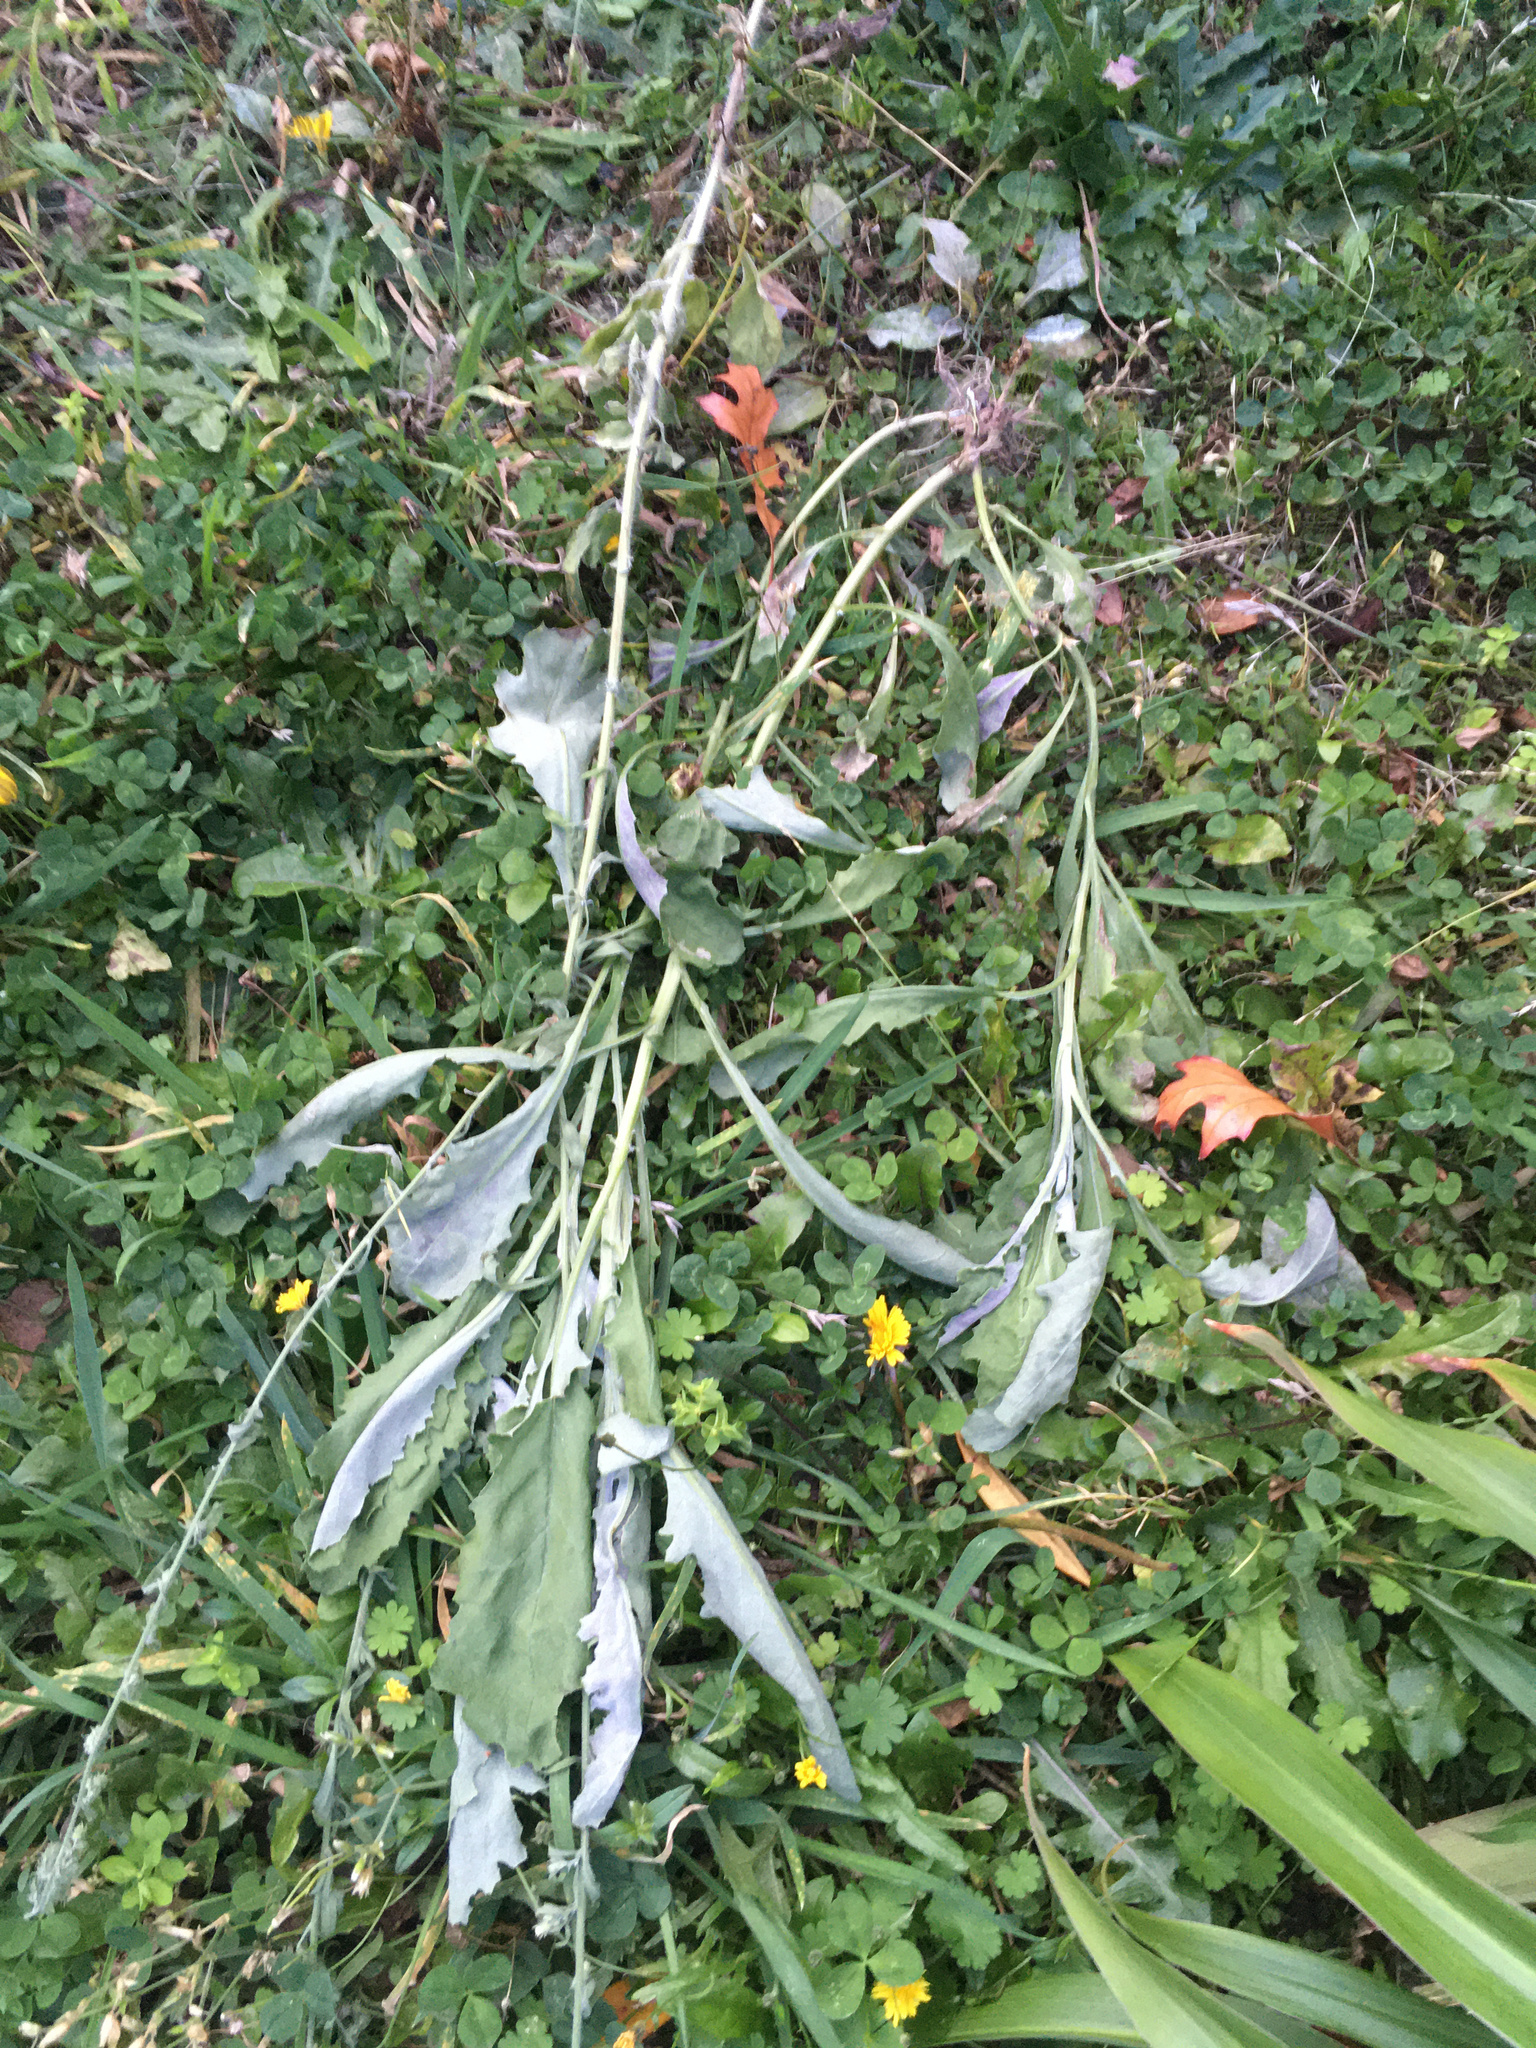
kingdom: Plantae
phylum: Tracheophyta
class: Magnoliopsida
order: Asterales
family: Asteraceae
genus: Senecio
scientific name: Senecio glomeratus
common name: Cutleaf burnweed
